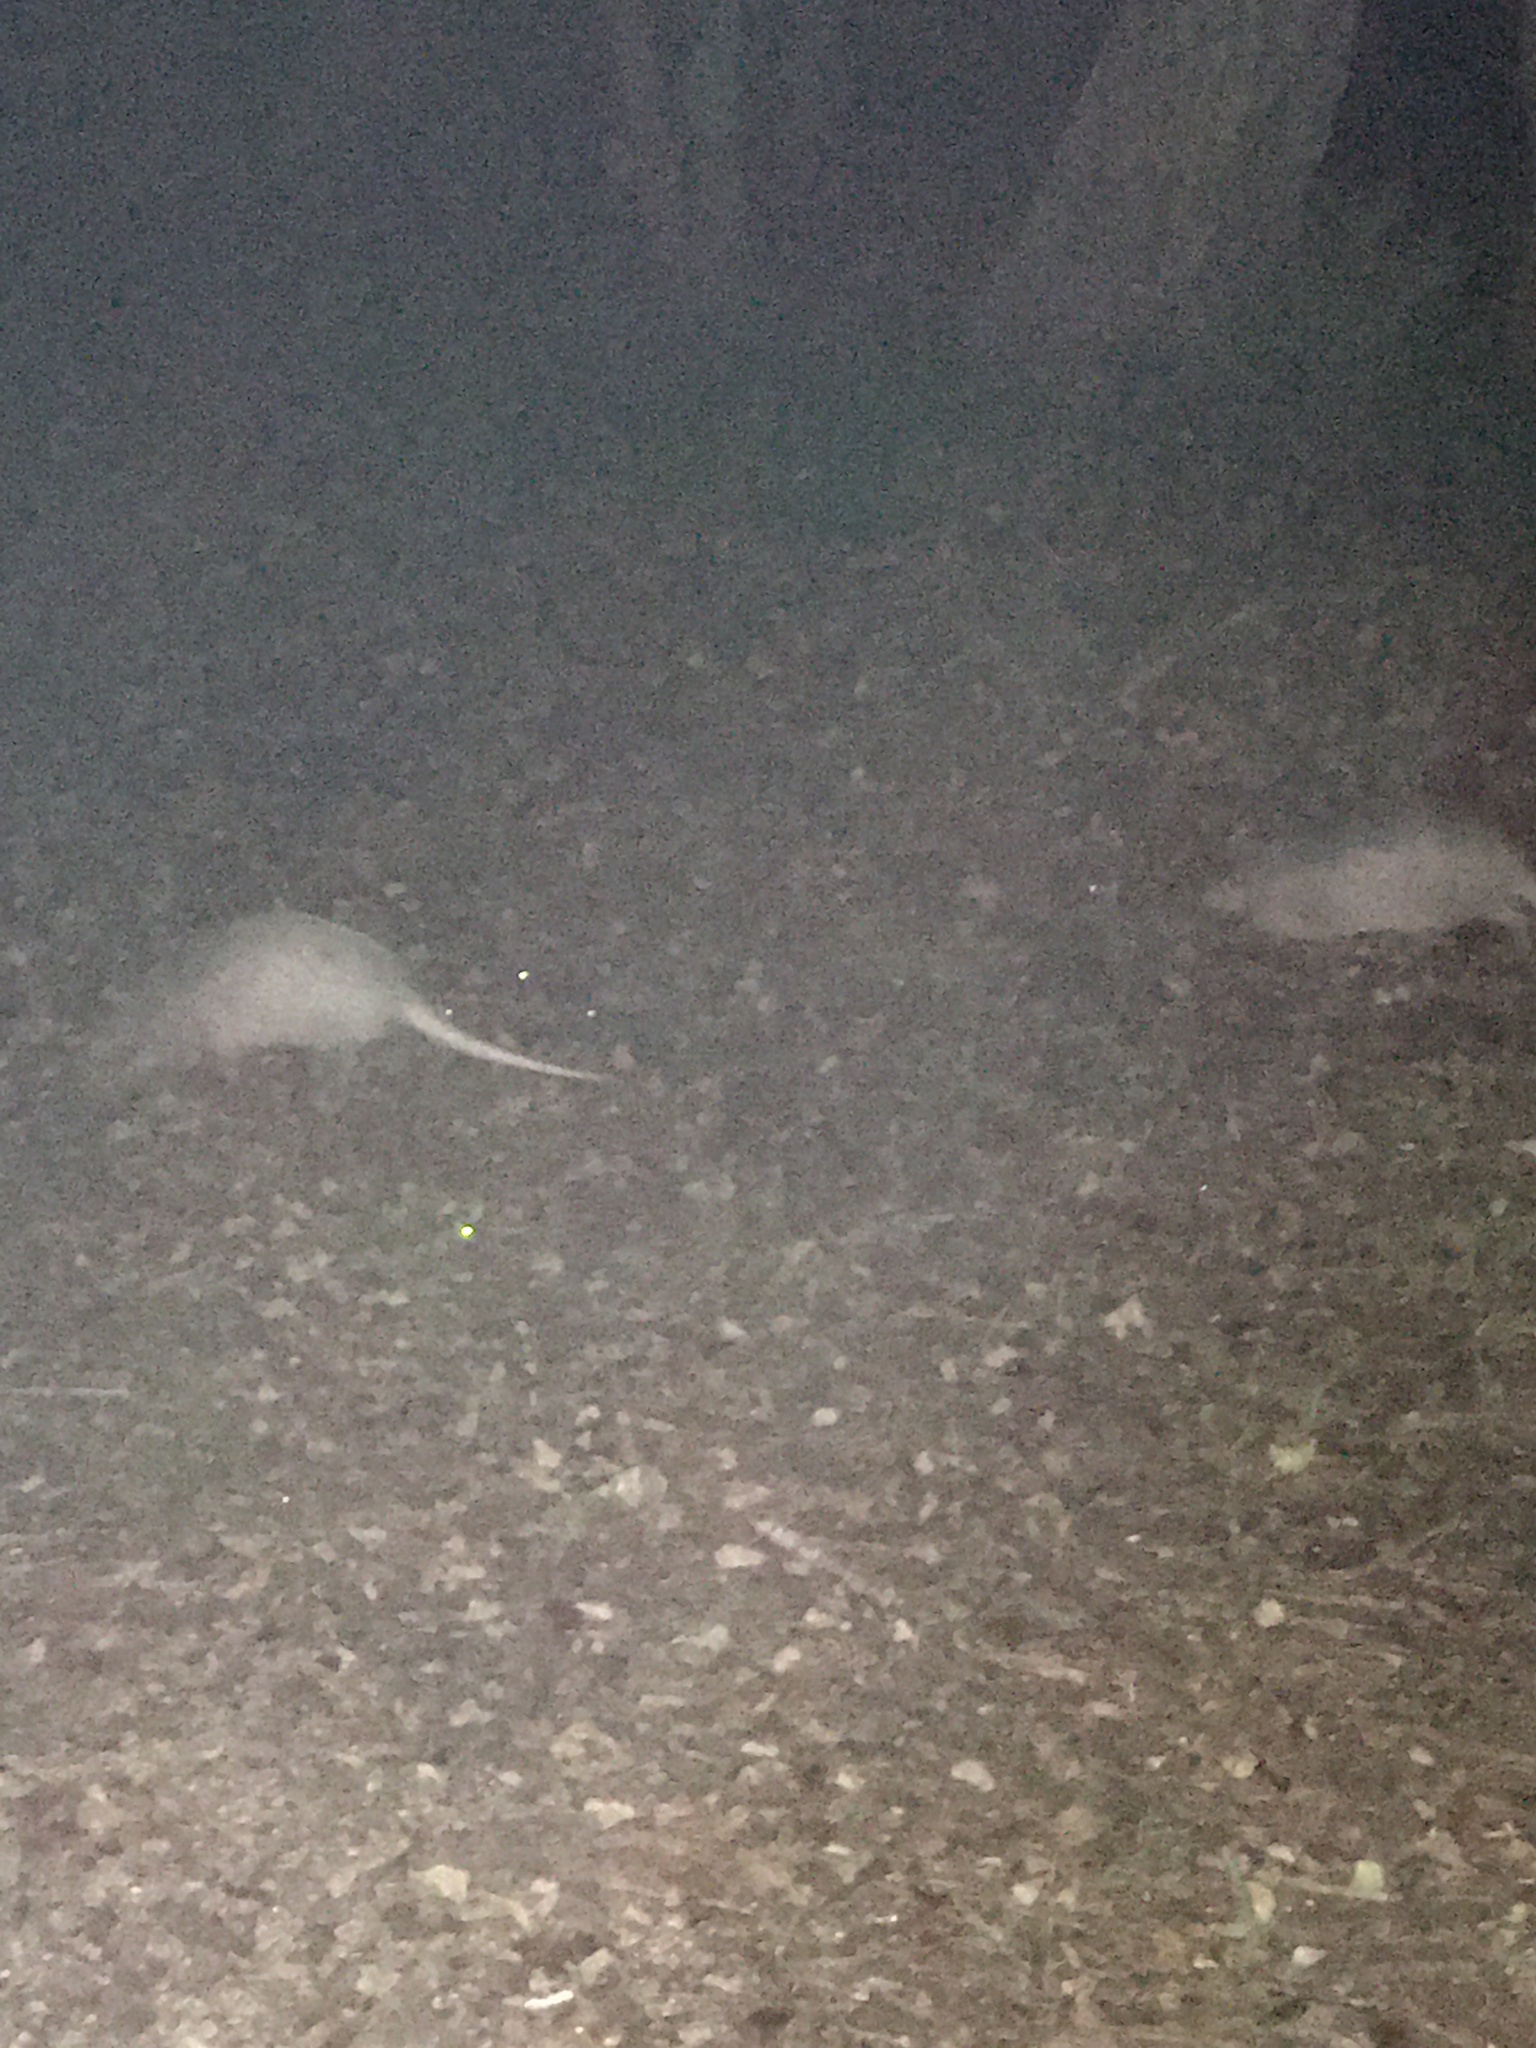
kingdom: Animalia
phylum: Chordata
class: Mammalia
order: Cingulata
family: Dasypodidae
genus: Dasypus
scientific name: Dasypus novemcinctus
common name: Nine-banded armadillo
